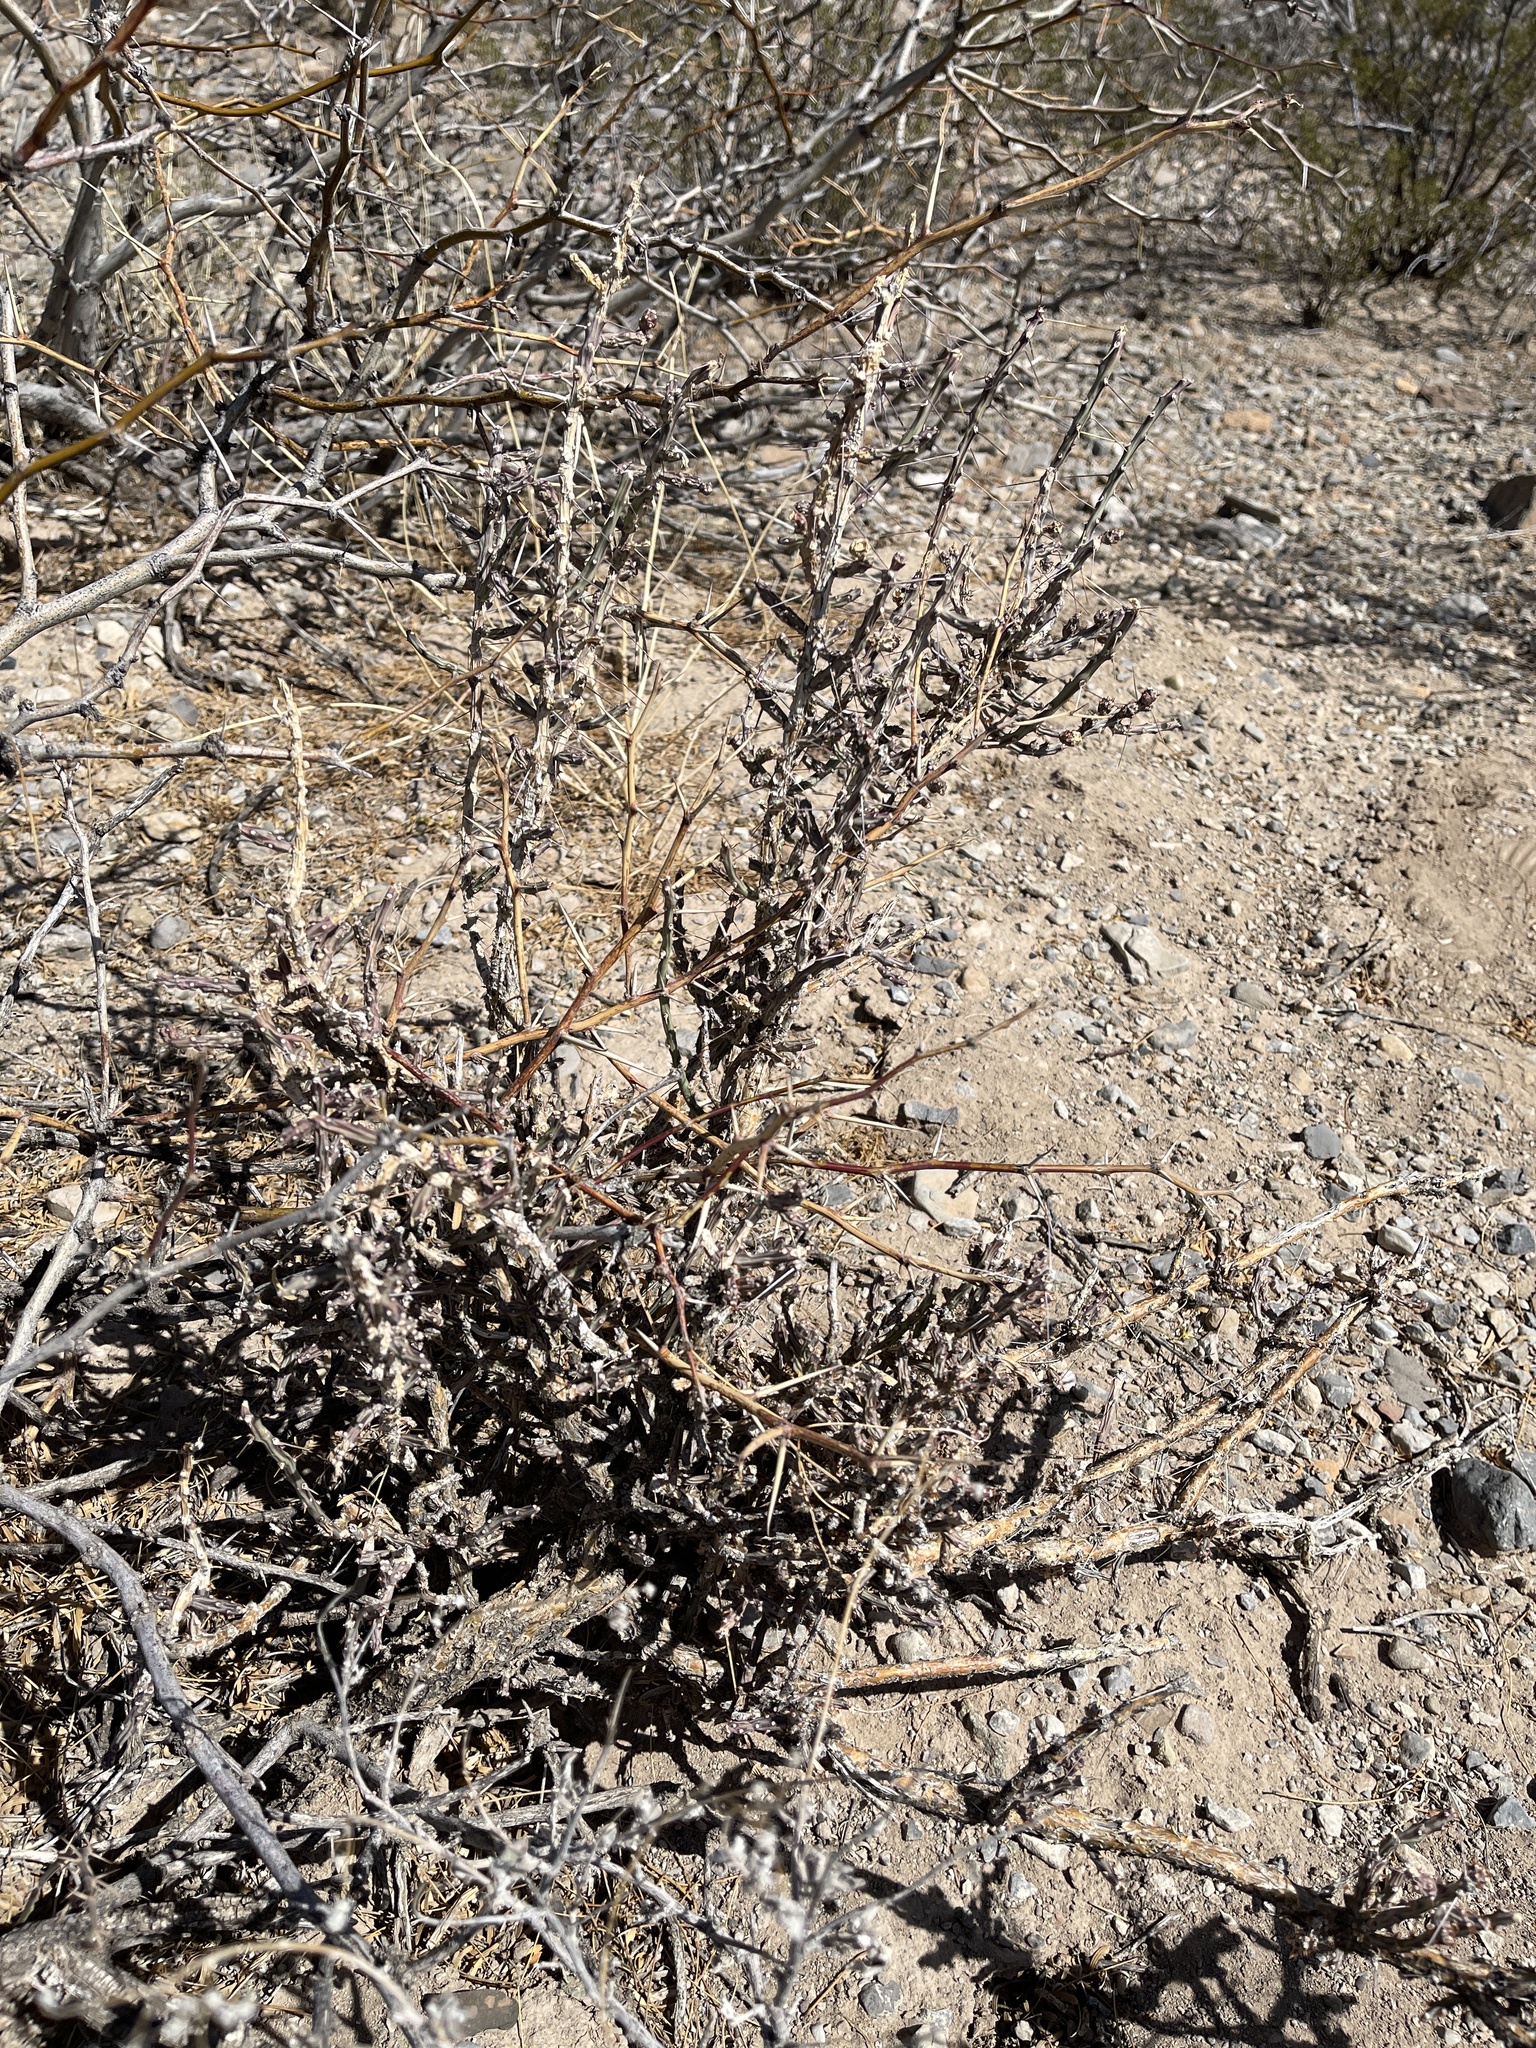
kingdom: Plantae
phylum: Tracheophyta
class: Magnoliopsida
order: Caryophyllales
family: Cactaceae
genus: Cylindropuntia
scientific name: Cylindropuntia leptocaulis
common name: Christmas cactus
